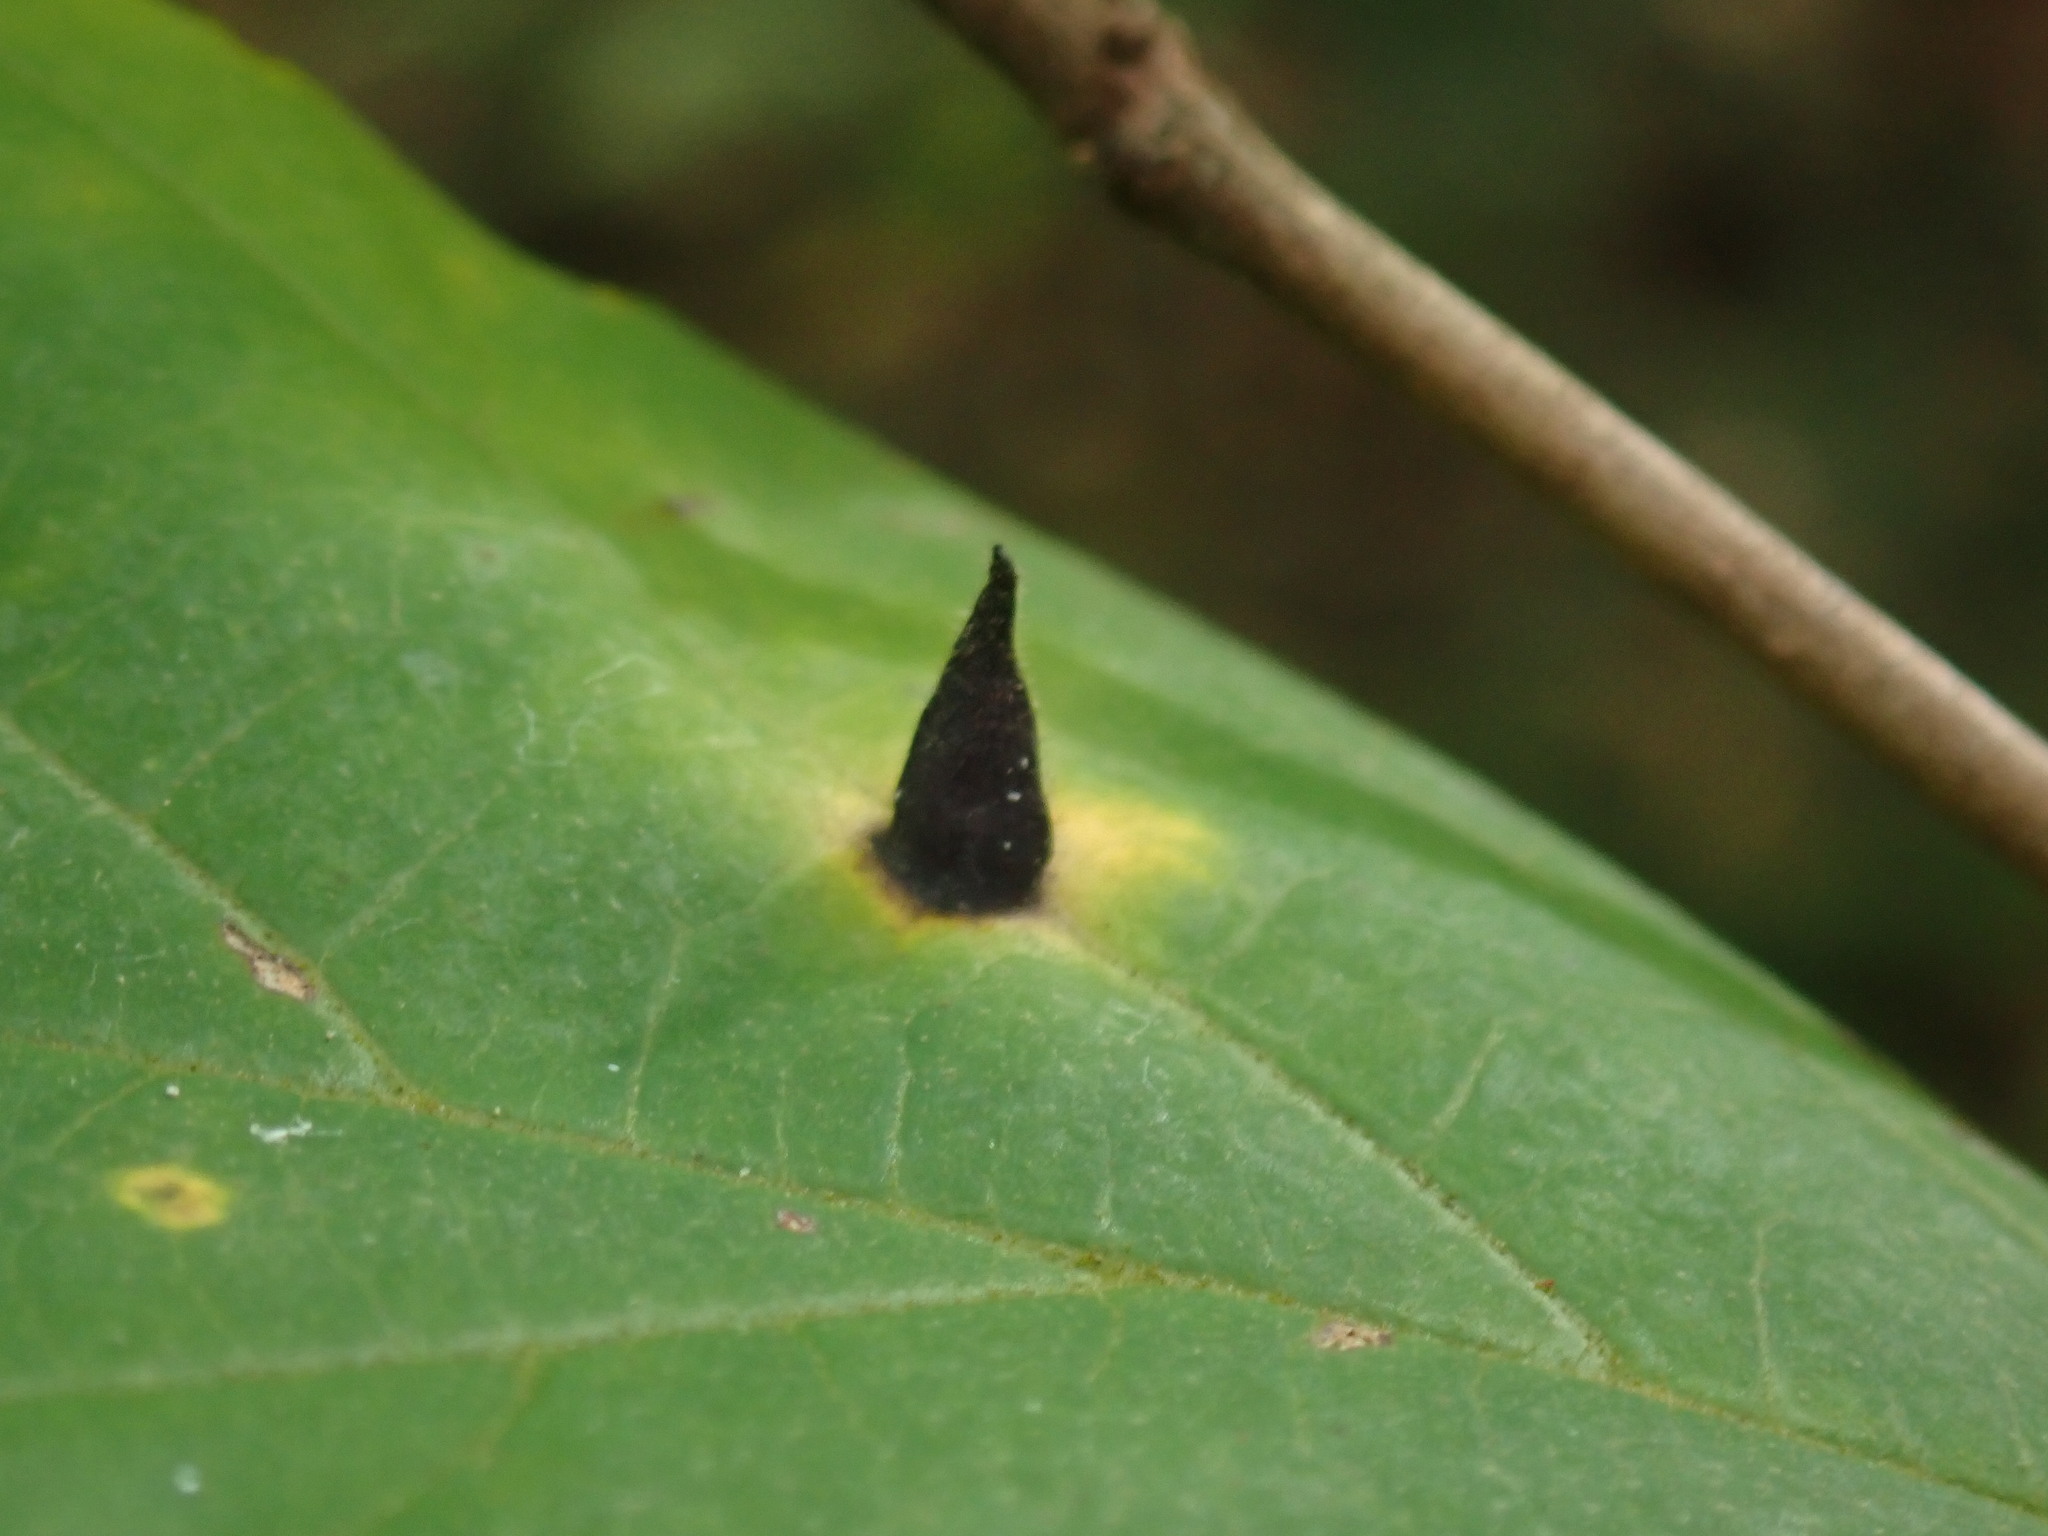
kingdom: Animalia
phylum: Arthropoda
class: Insecta
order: Hemiptera
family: Aphididae
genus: Hormaphis
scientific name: Hormaphis hamamelidis
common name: Witch-hazel cone gall aphid
